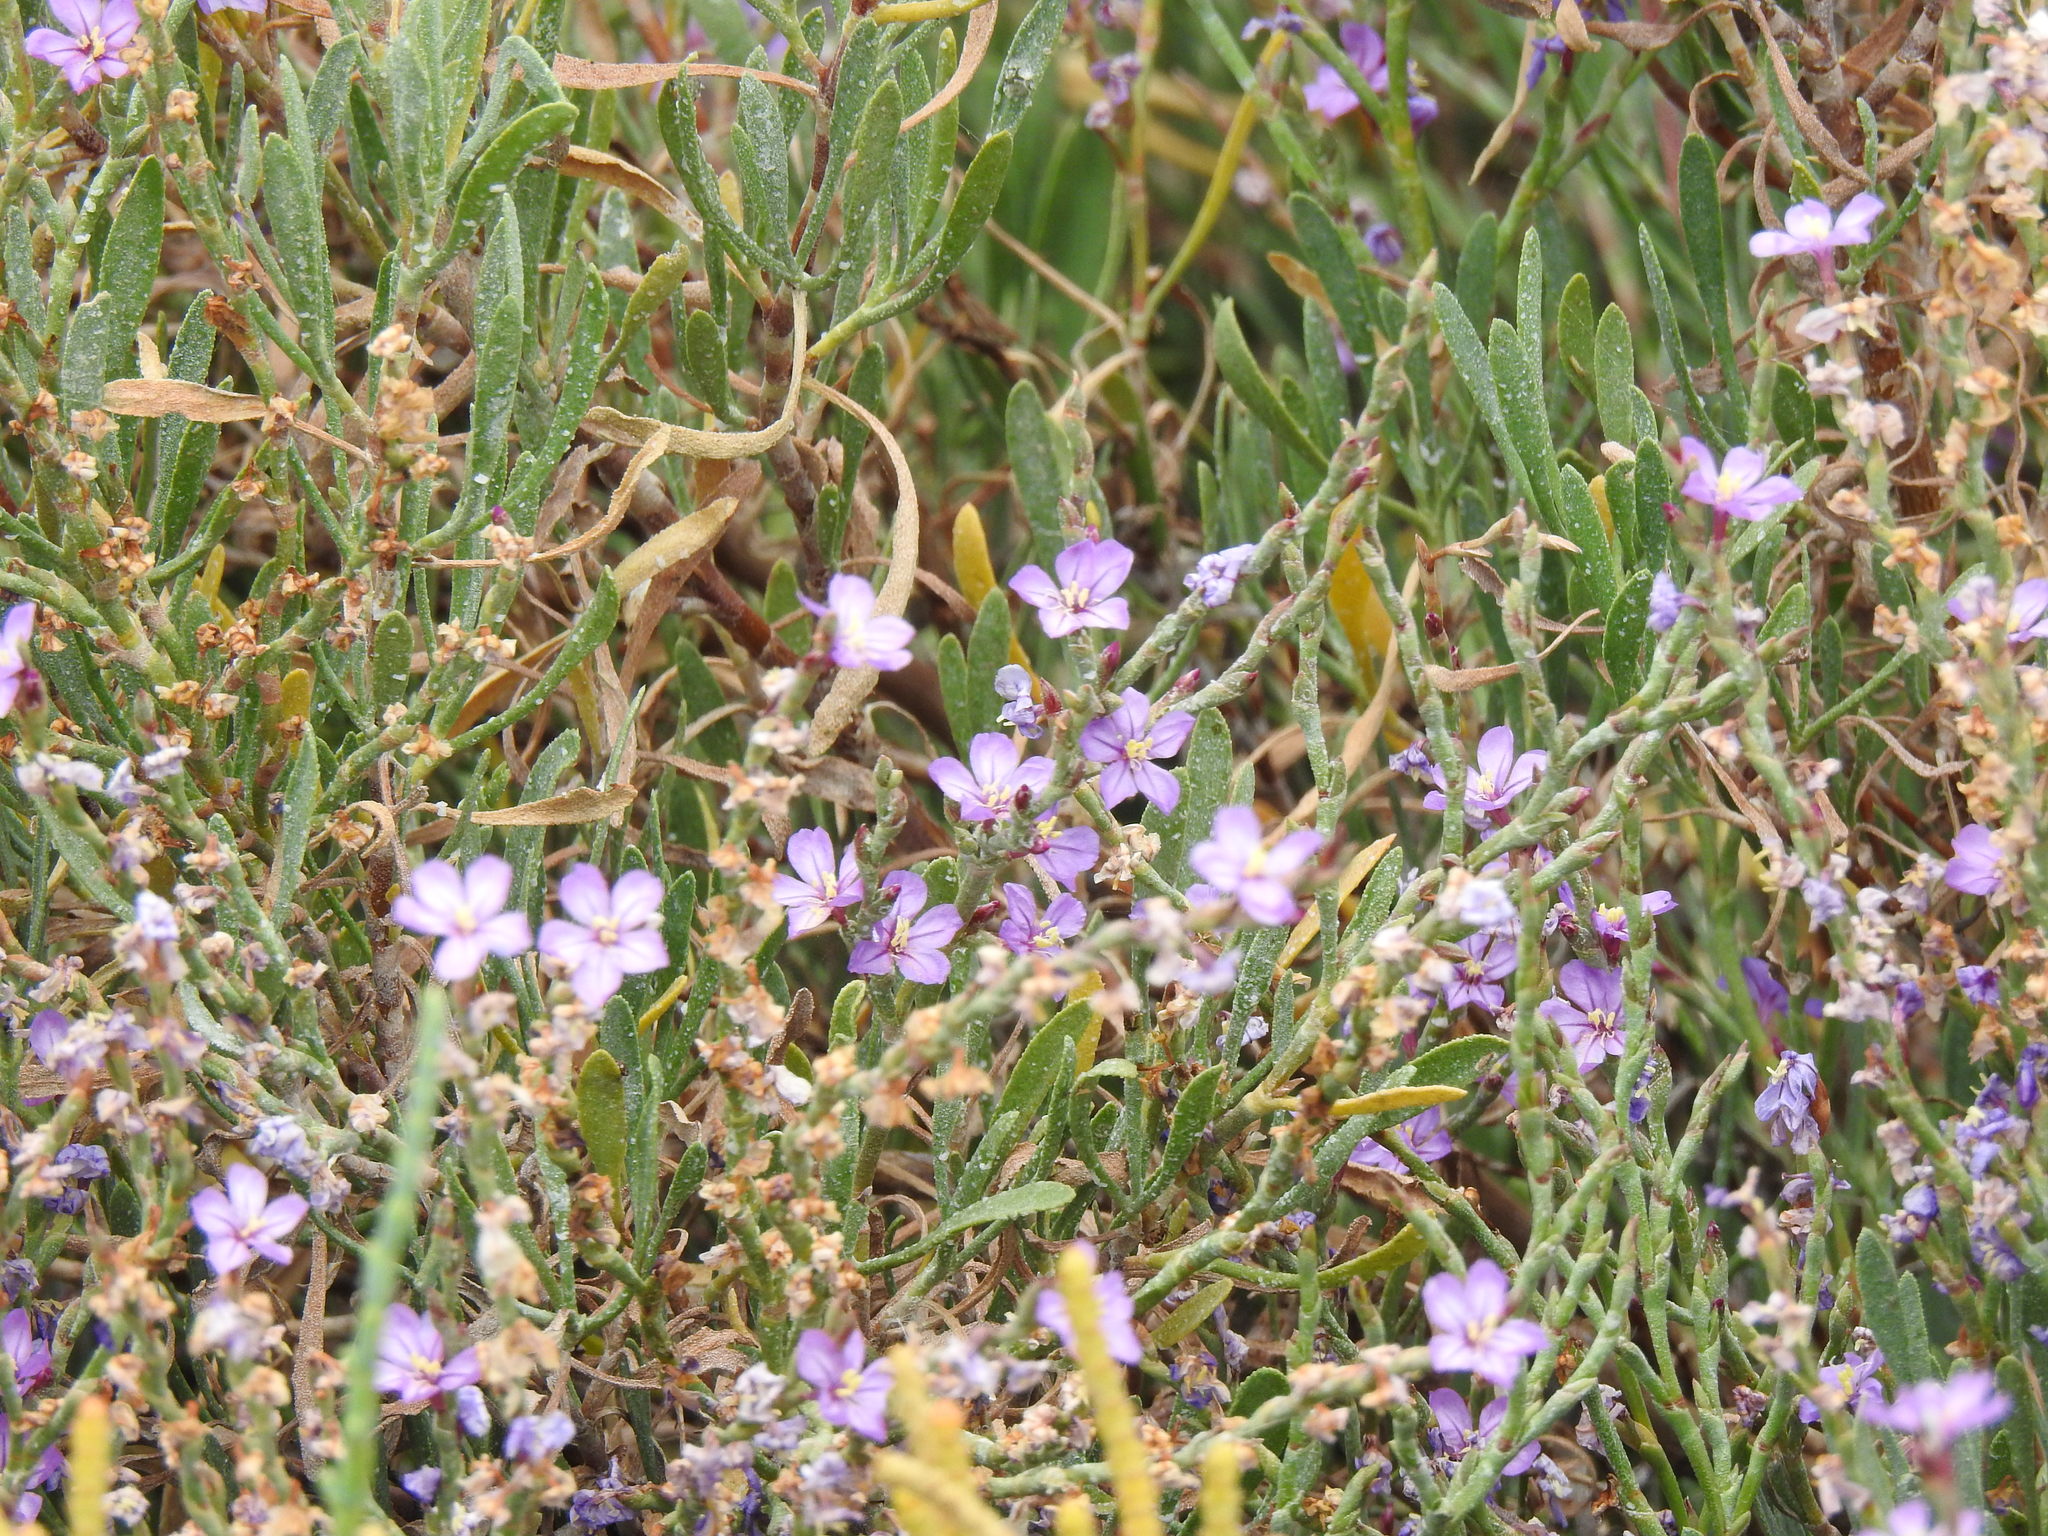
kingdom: Plantae
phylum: Tracheophyta
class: Magnoliopsida
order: Caryophyllales
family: Plumbaginaceae
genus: Limoniastrum
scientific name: Limoniastrum monopetalum
